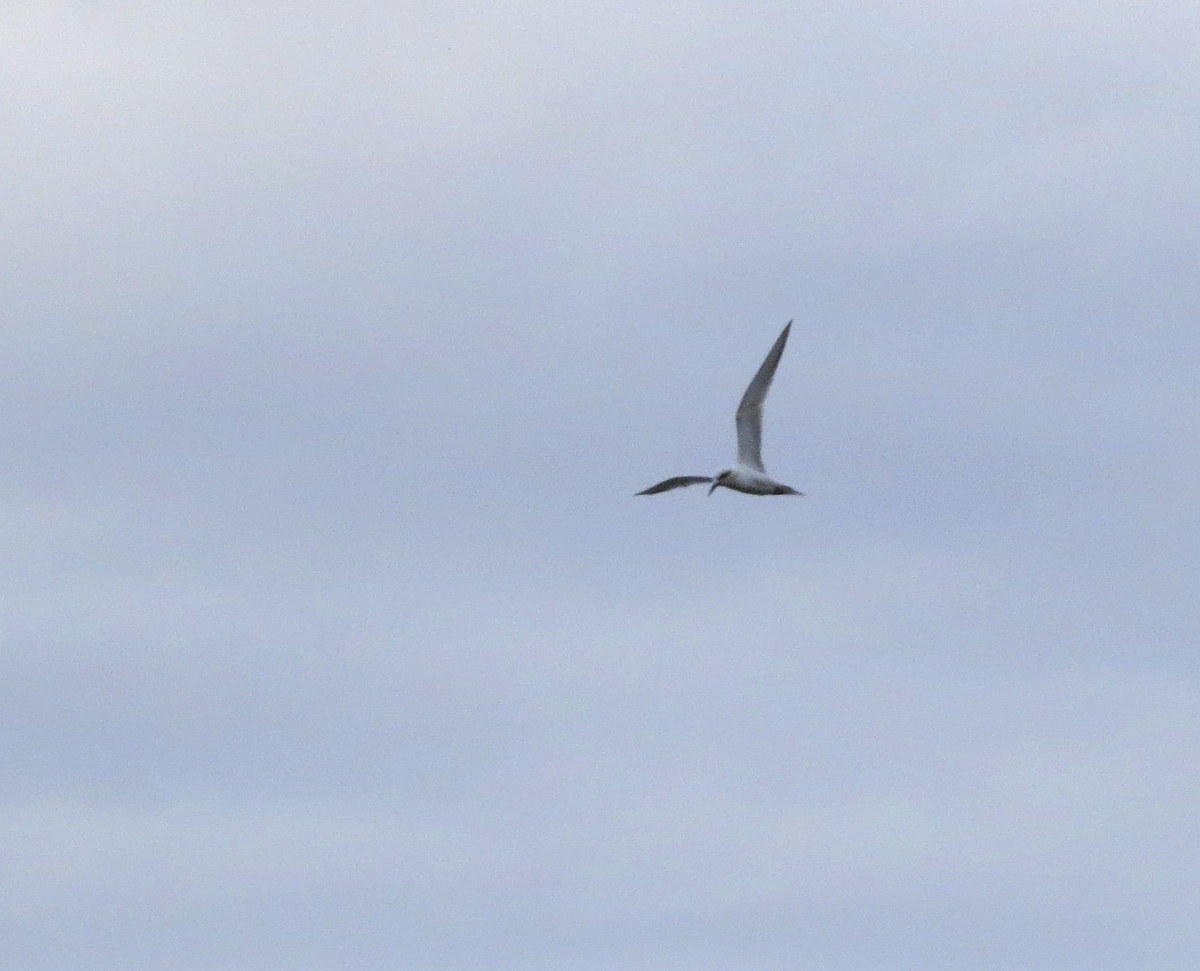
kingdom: Animalia
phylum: Chordata
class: Aves
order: Charadriiformes
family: Laridae
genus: Sterna
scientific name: Sterna trudeaui
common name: Snowy-crowned tern
